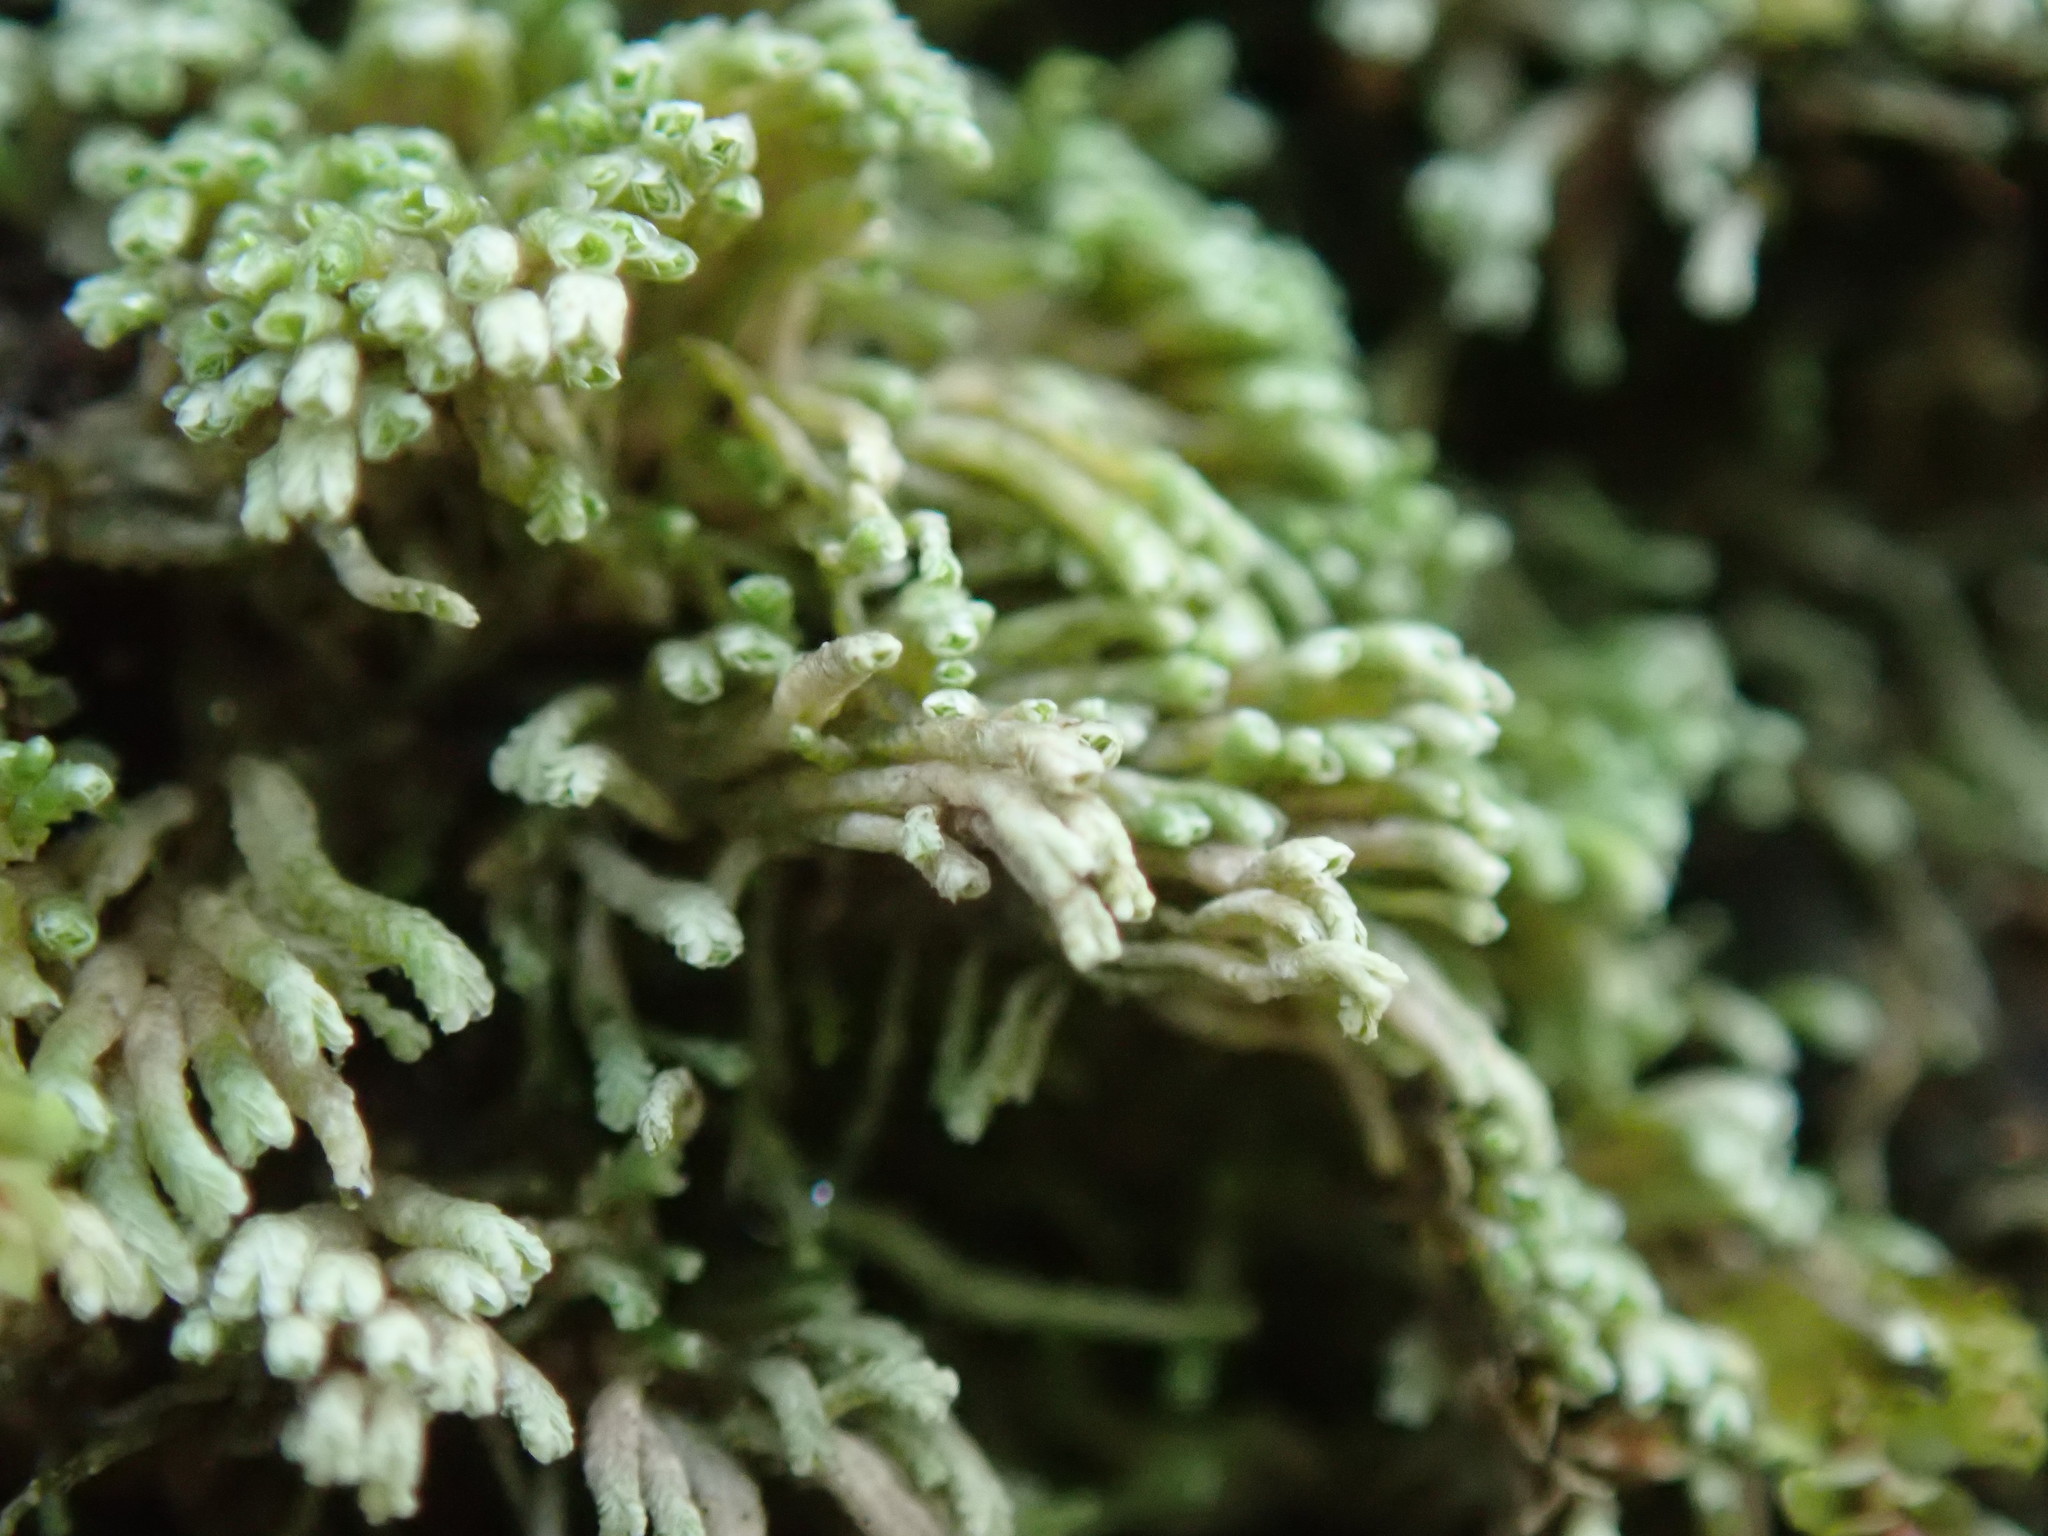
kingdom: Plantae
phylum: Marchantiophyta
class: Jungermanniopsida
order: Jungermanniales
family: Gymnomitriaceae
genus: Gymnomitrion
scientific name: Gymnomitrion obtusum
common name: White frostwort
